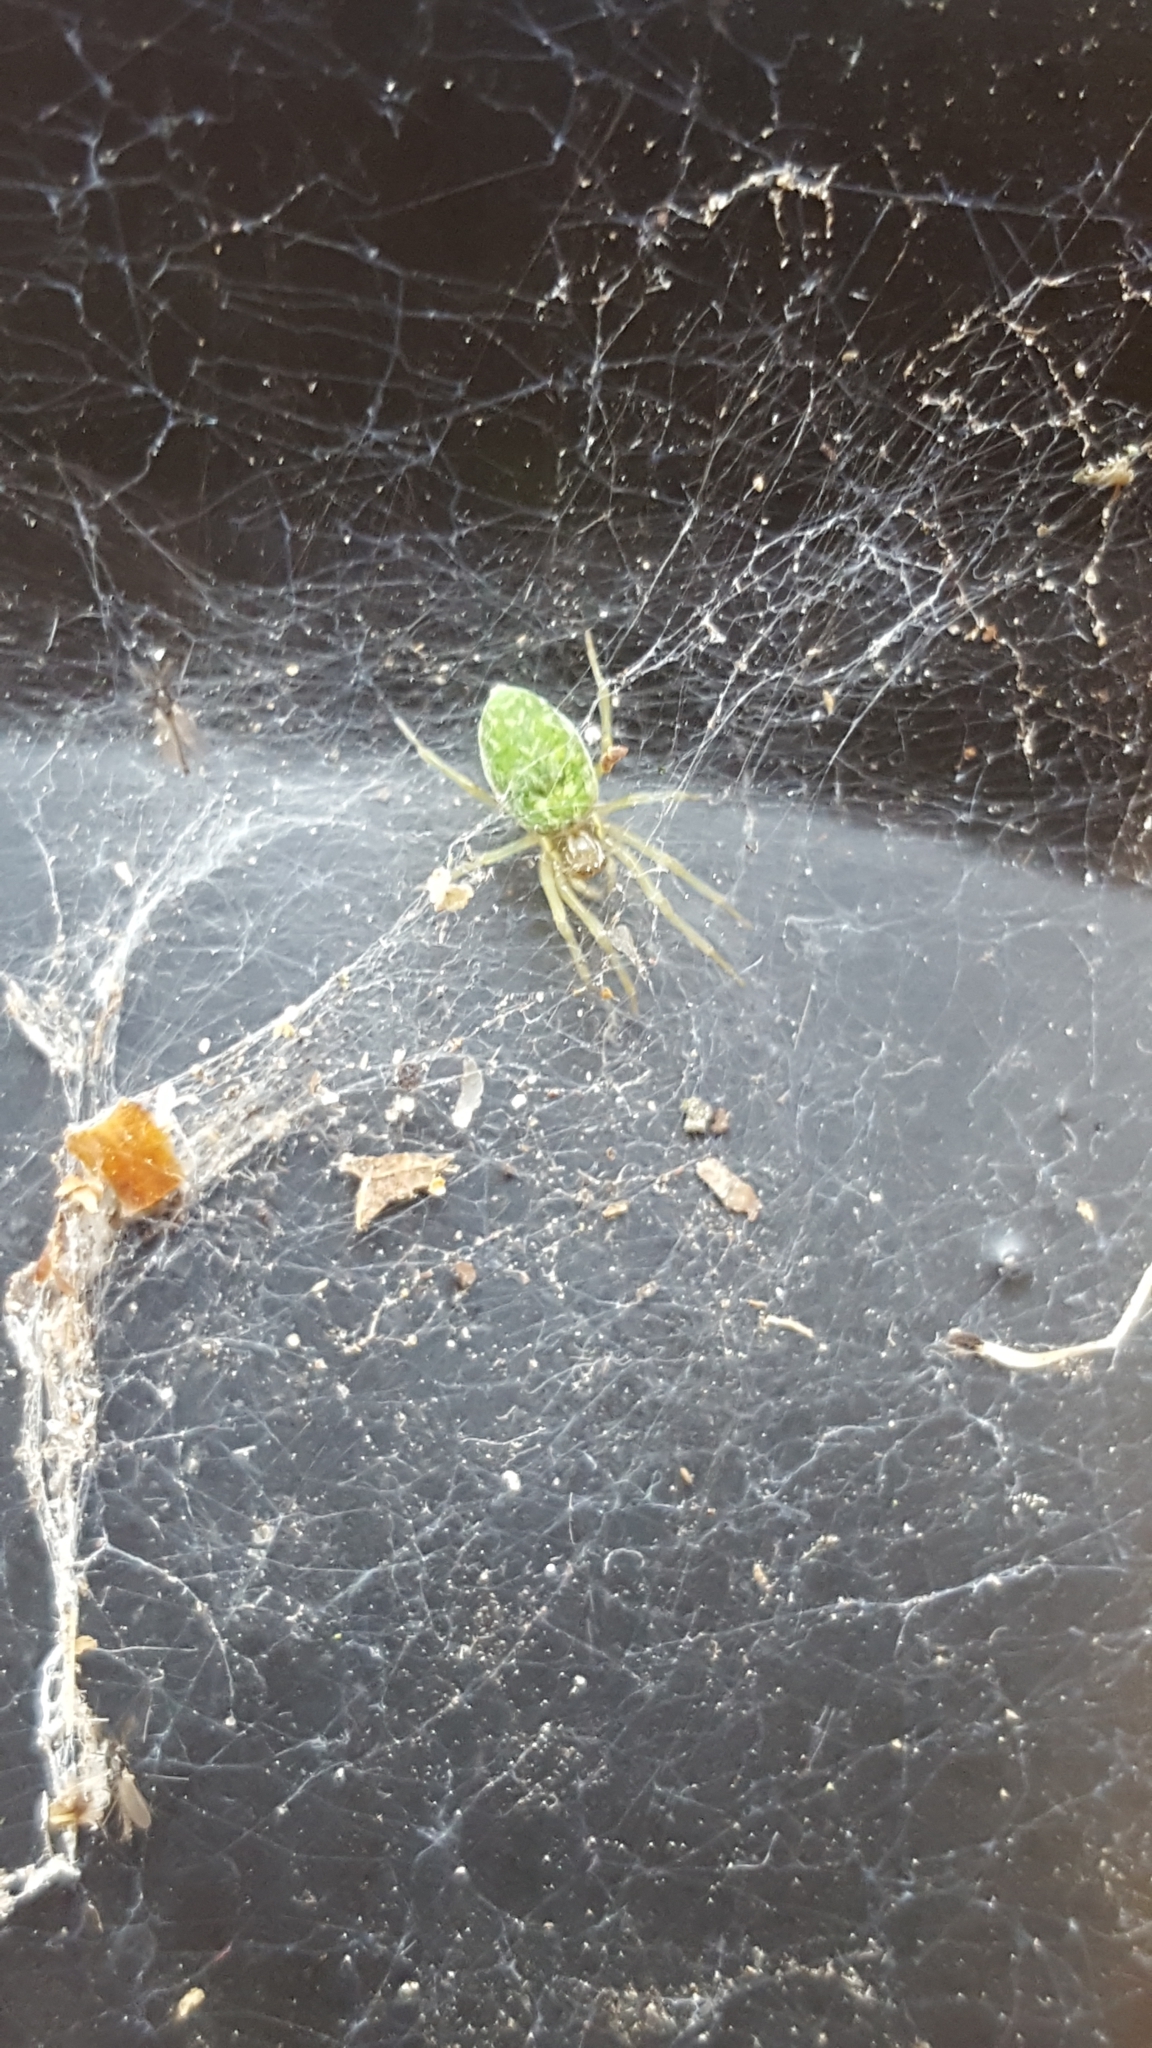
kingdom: Animalia
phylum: Arthropoda
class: Arachnida
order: Araneae
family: Dictynidae
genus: Nigma
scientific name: Nigma walckenaeri
